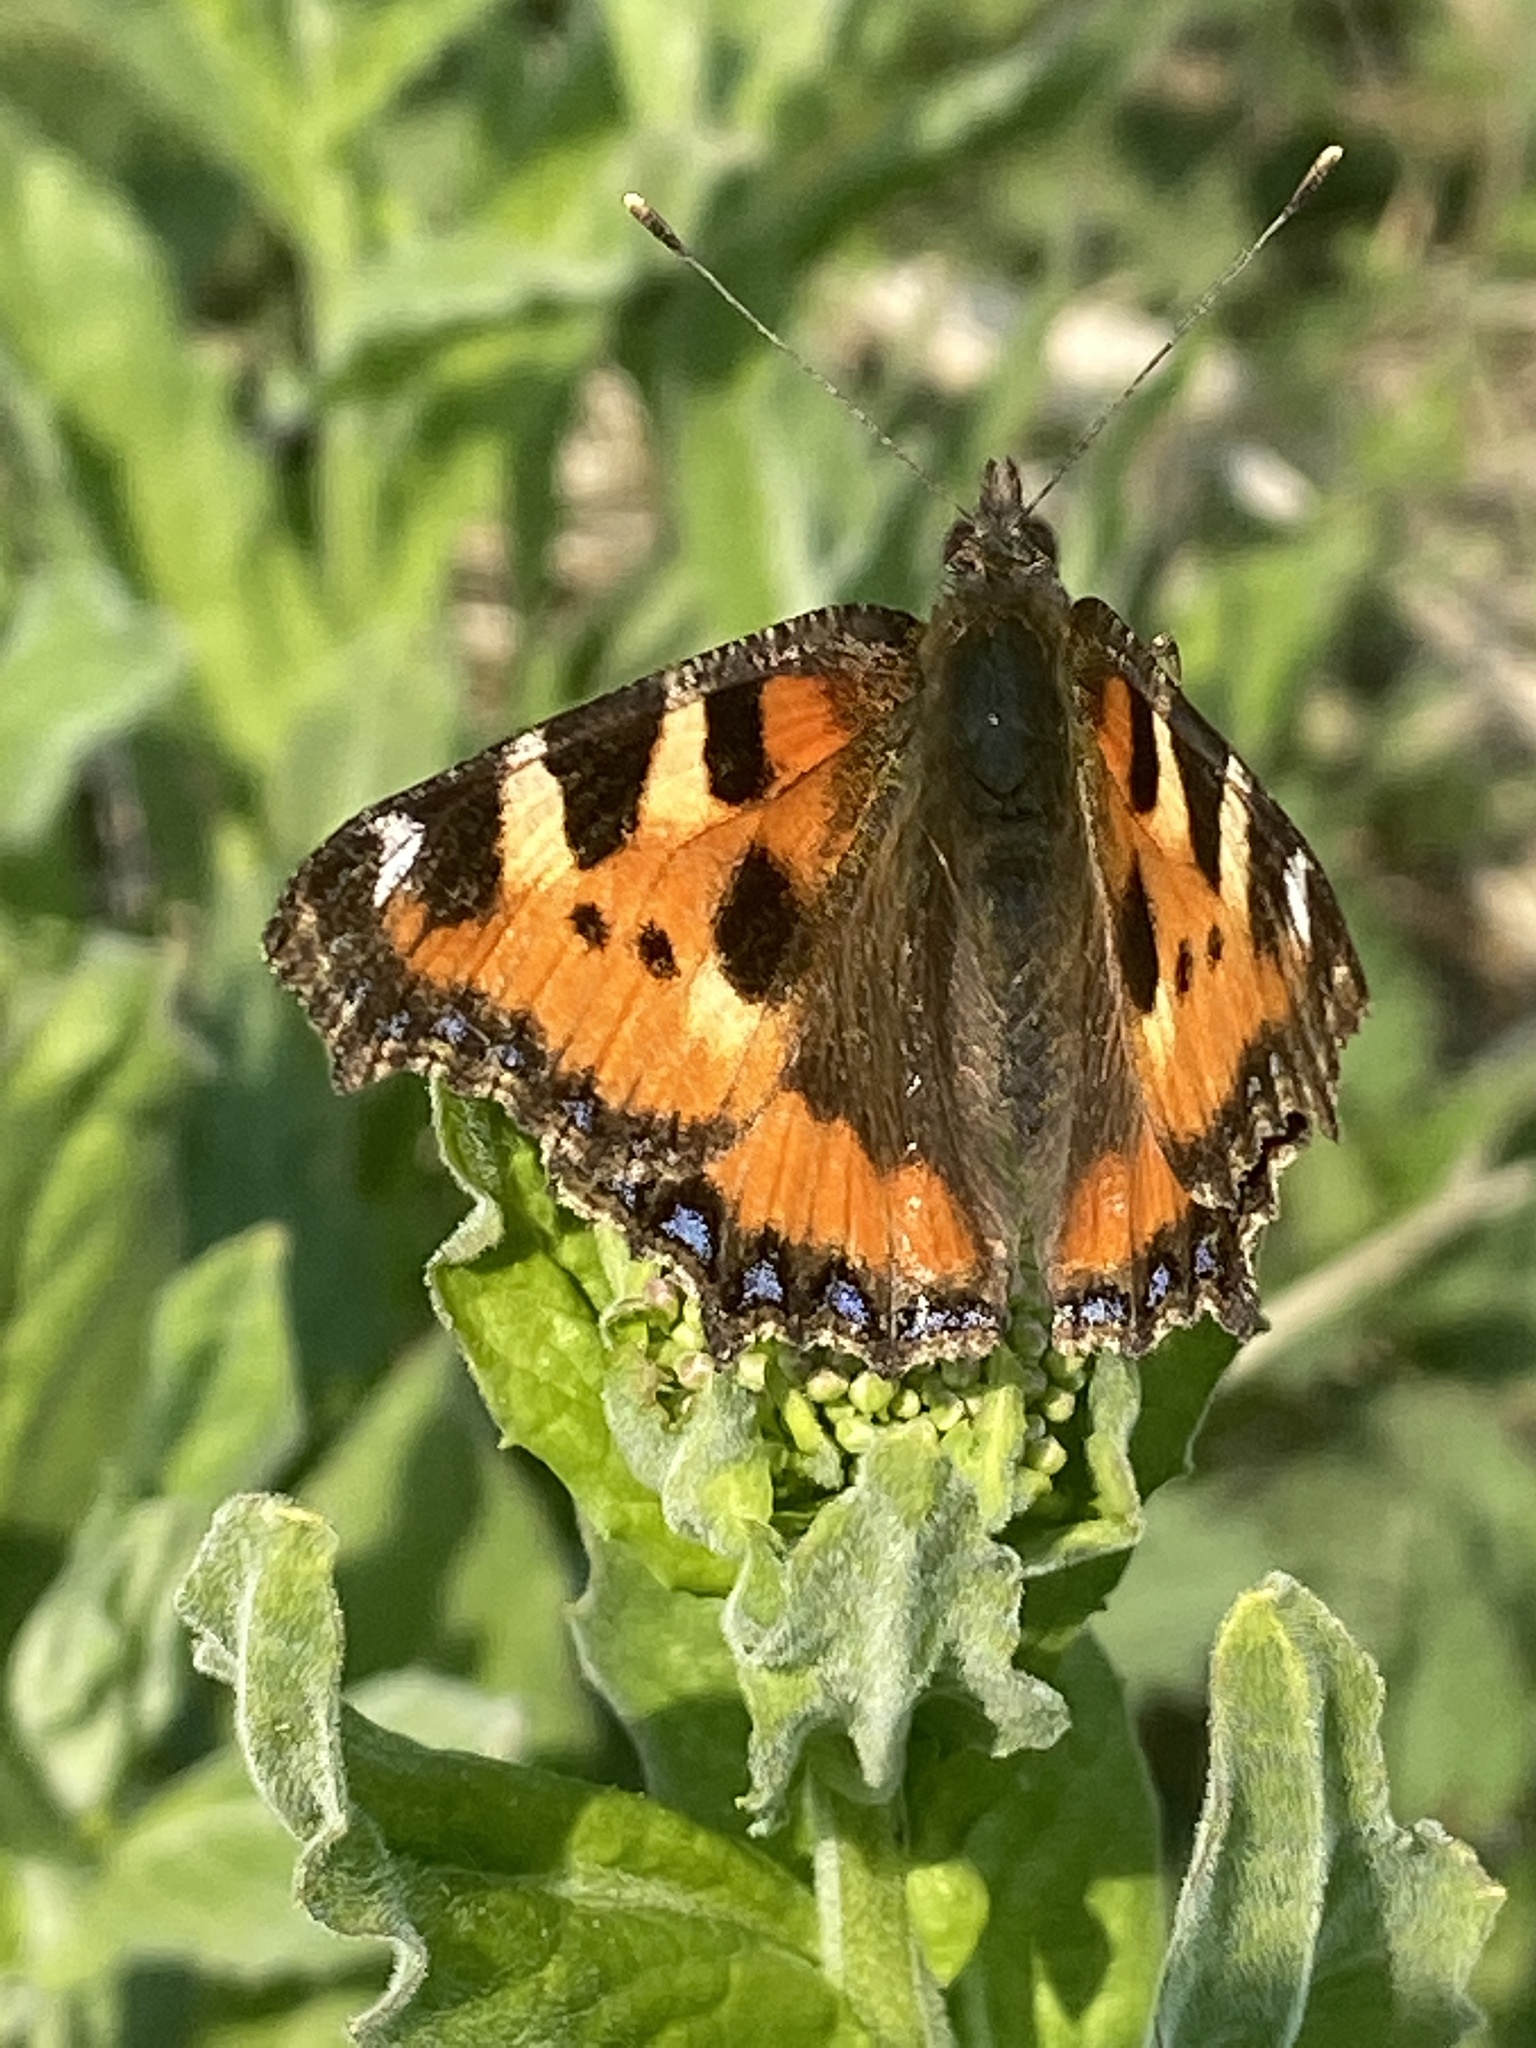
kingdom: Animalia
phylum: Arthropoda
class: Insecta
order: Lepidoptera
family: Nymphalidae
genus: Aglais
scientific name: Aglais urticae
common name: Small tortoiseshell
